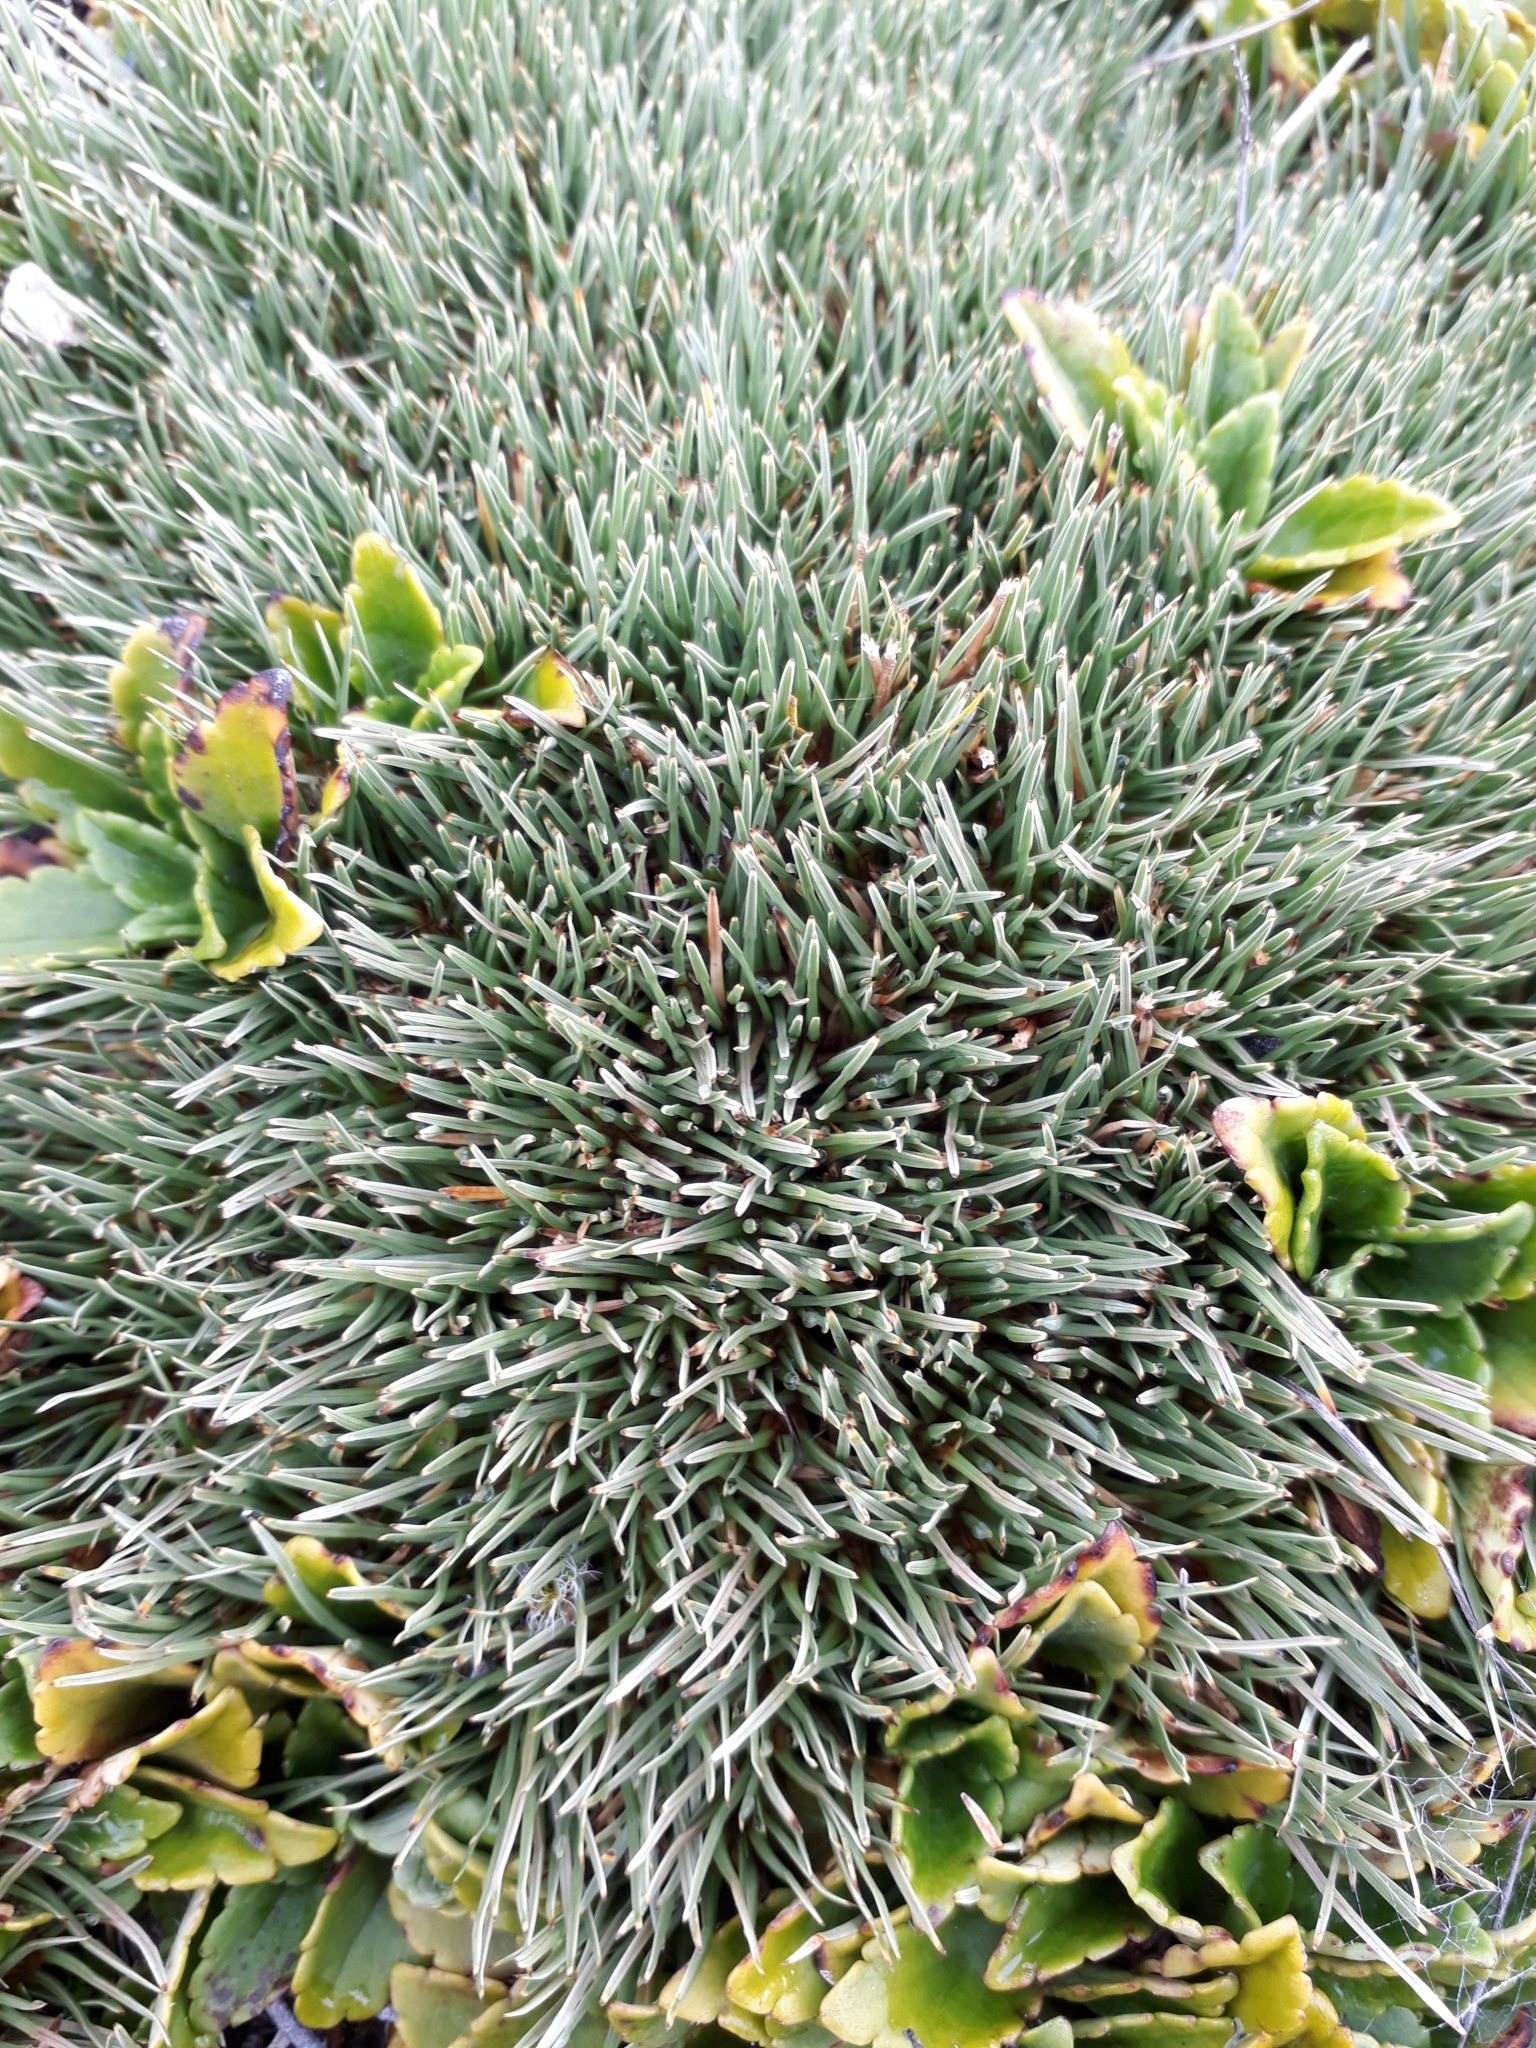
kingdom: Plantae
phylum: Tracheophyta
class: Liliopsida
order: Poales
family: Cyperaceae
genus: Oreobolus
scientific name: Oreobolus pectinatus
